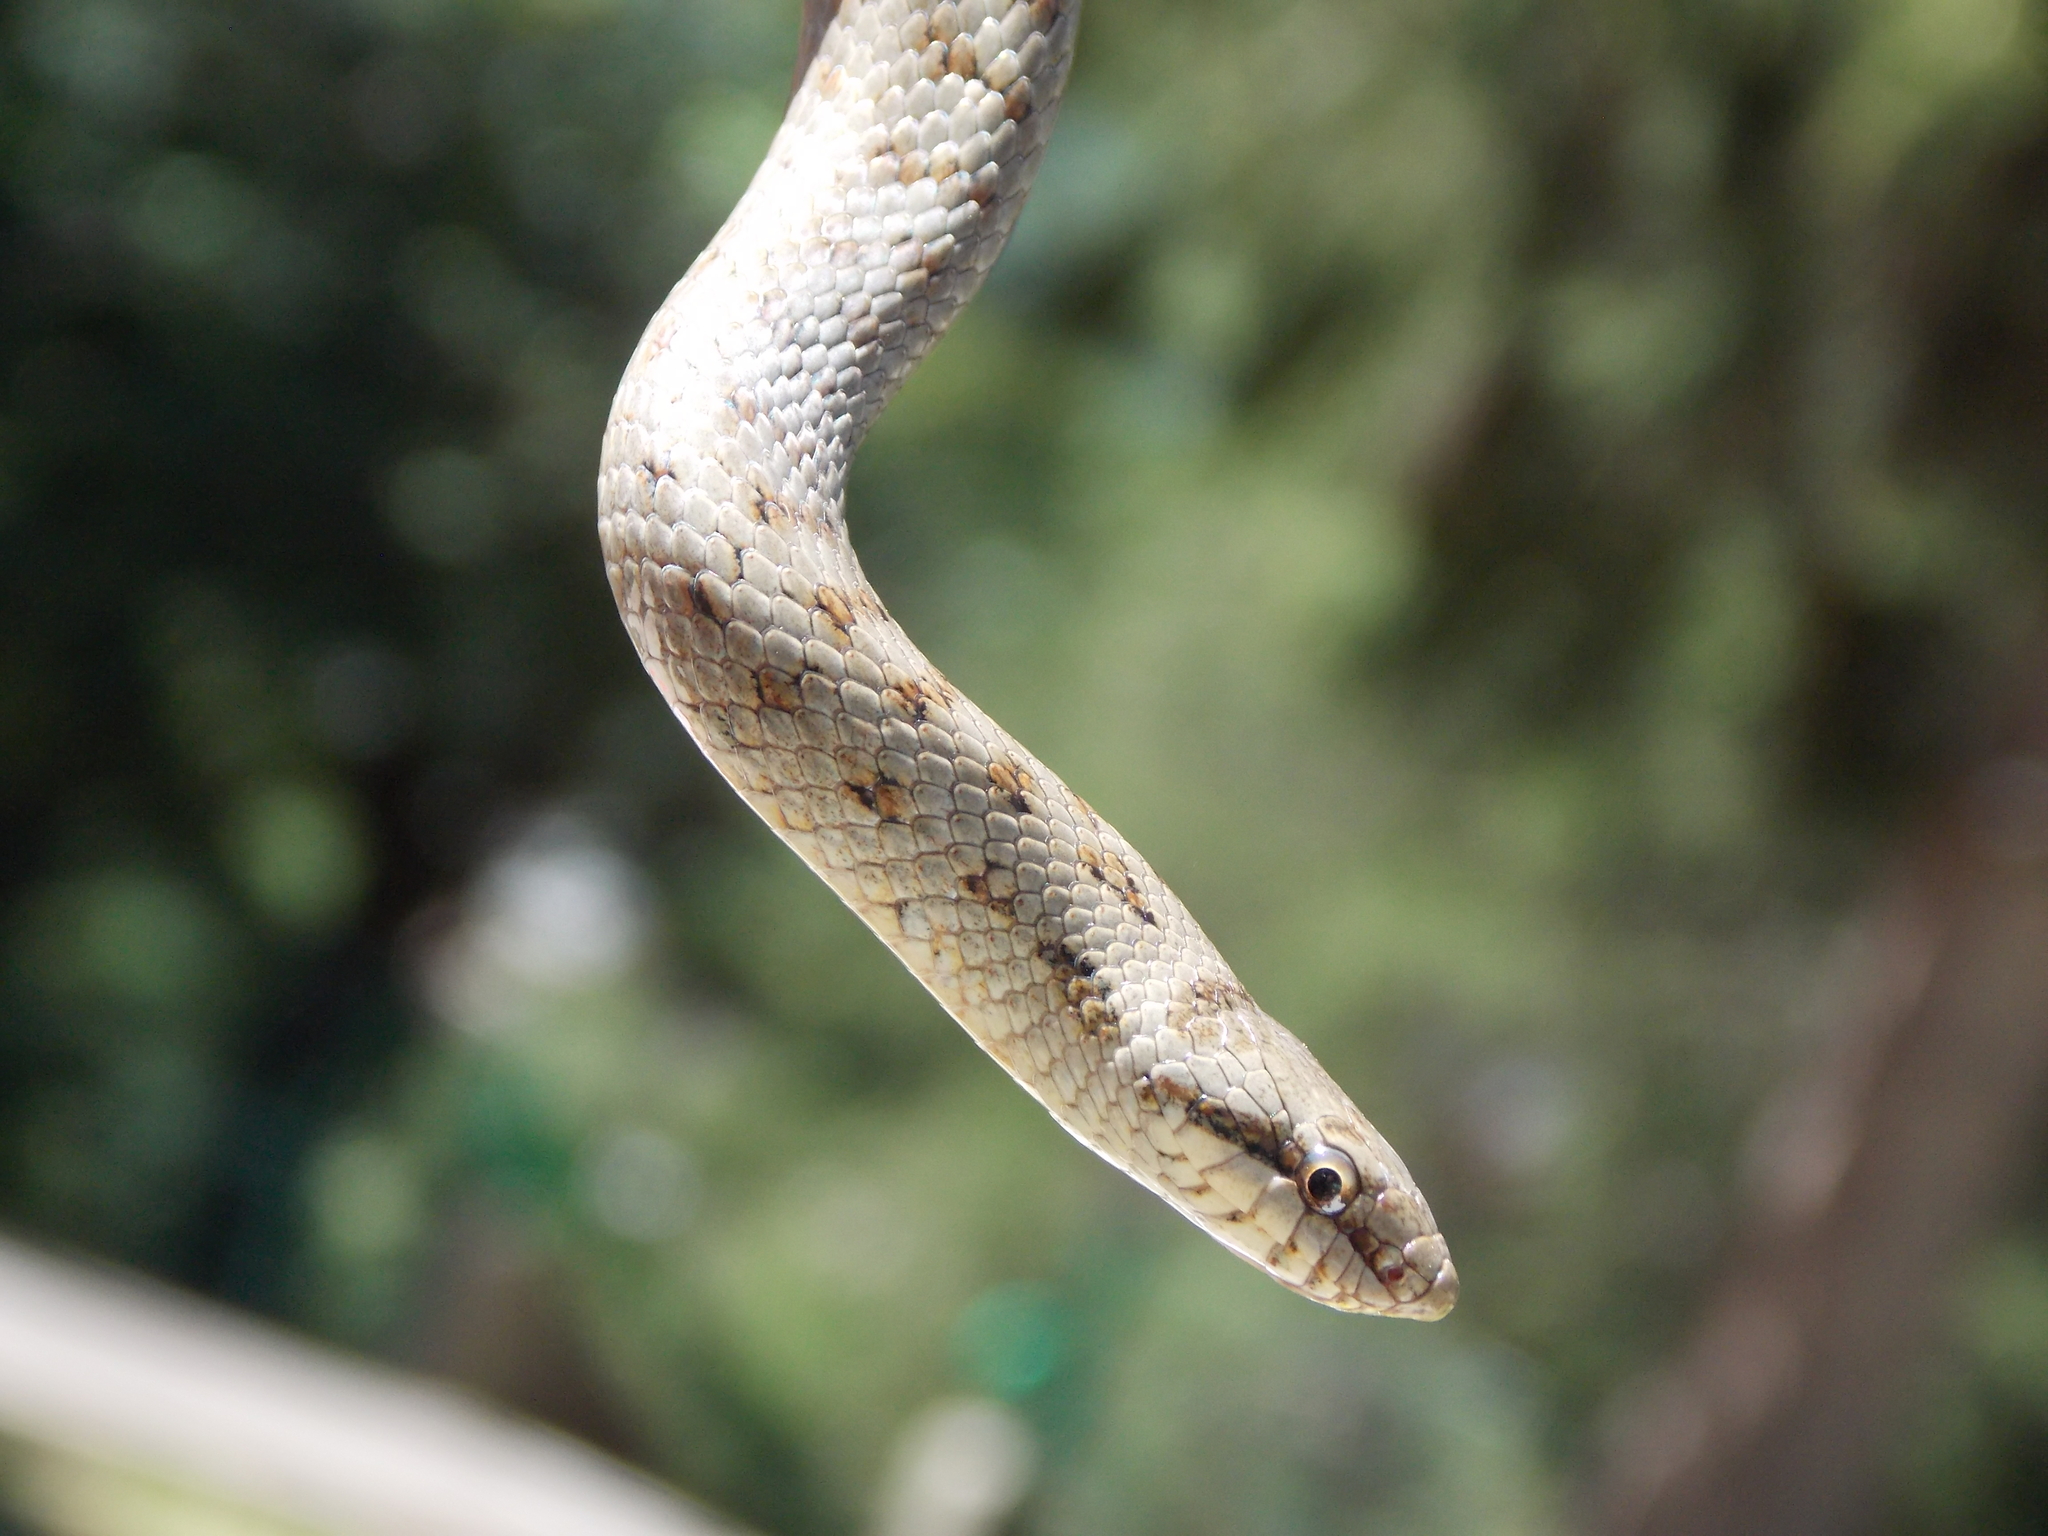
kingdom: Animalia
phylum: Chordata
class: Squamata
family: Colubridae
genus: Coronella
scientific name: Coronella austriaca
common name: Smooth snake
